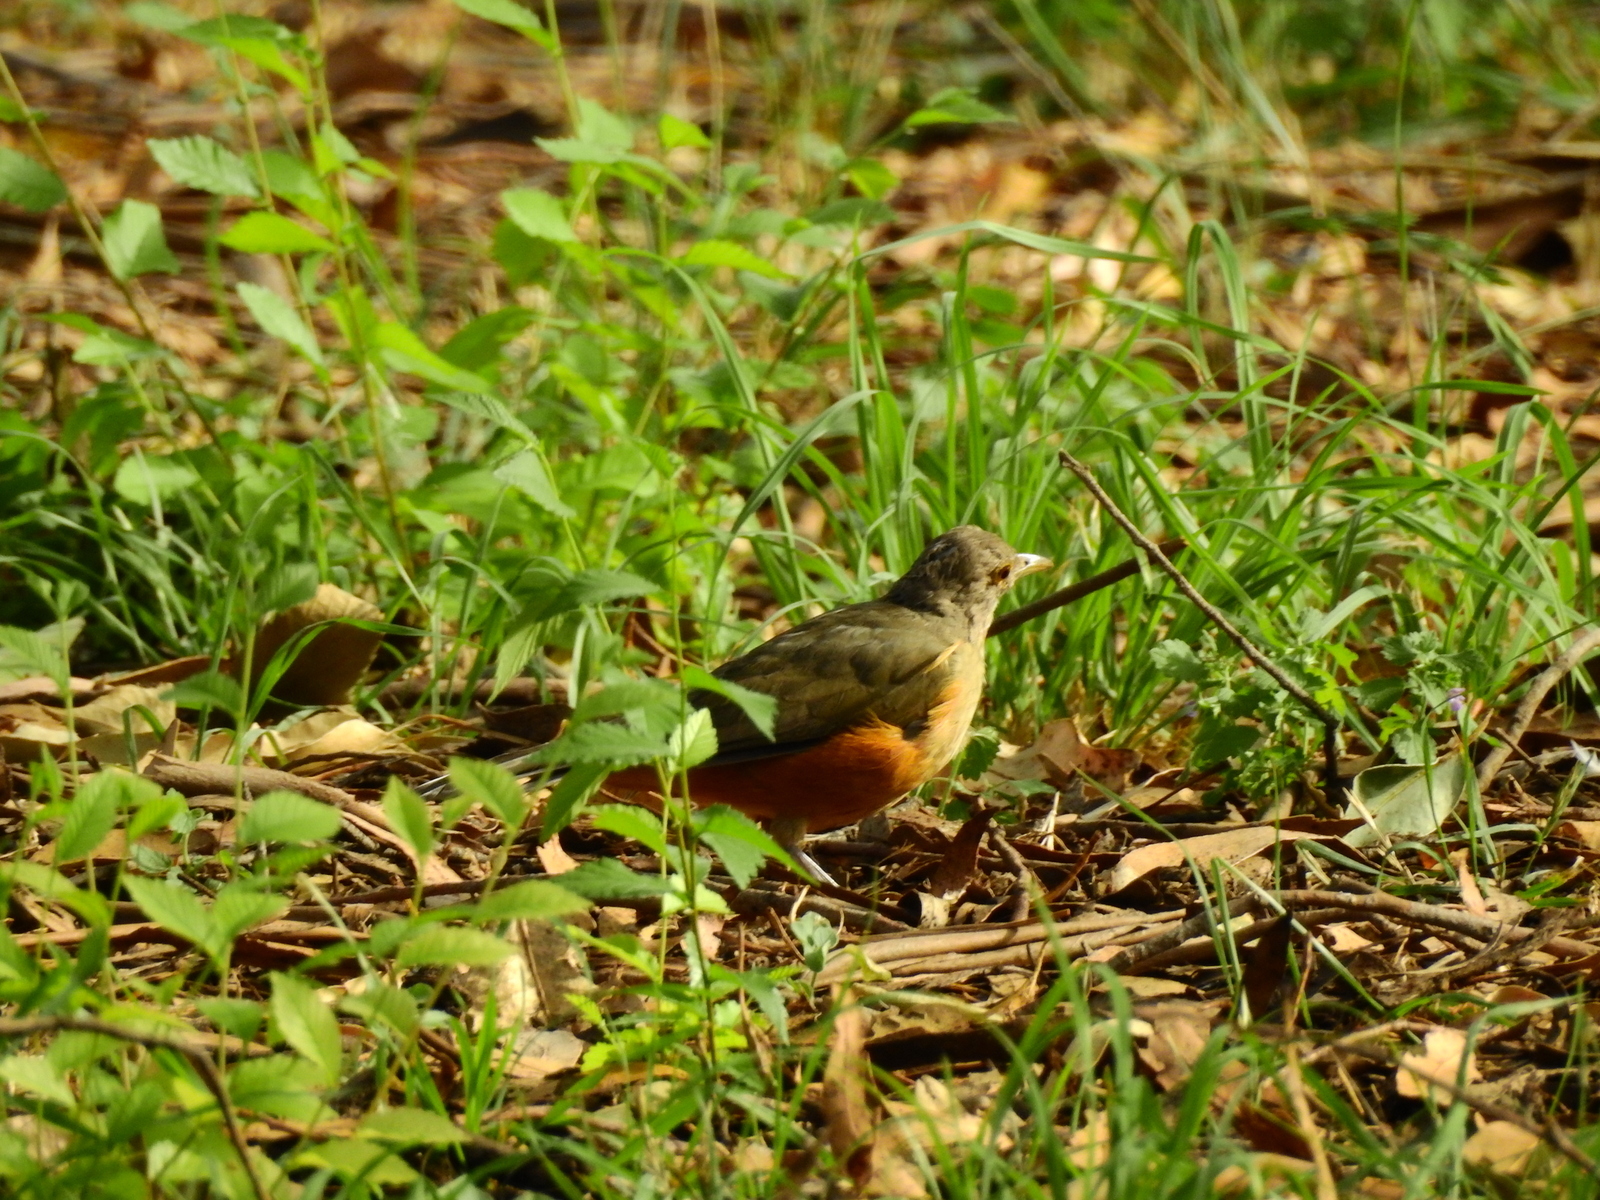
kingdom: Animalia
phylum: Chordata
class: Aves
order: Passeriformes
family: Turdidae
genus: Turdus
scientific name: Turdus rufiventris
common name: Rufous-bellied thrush
